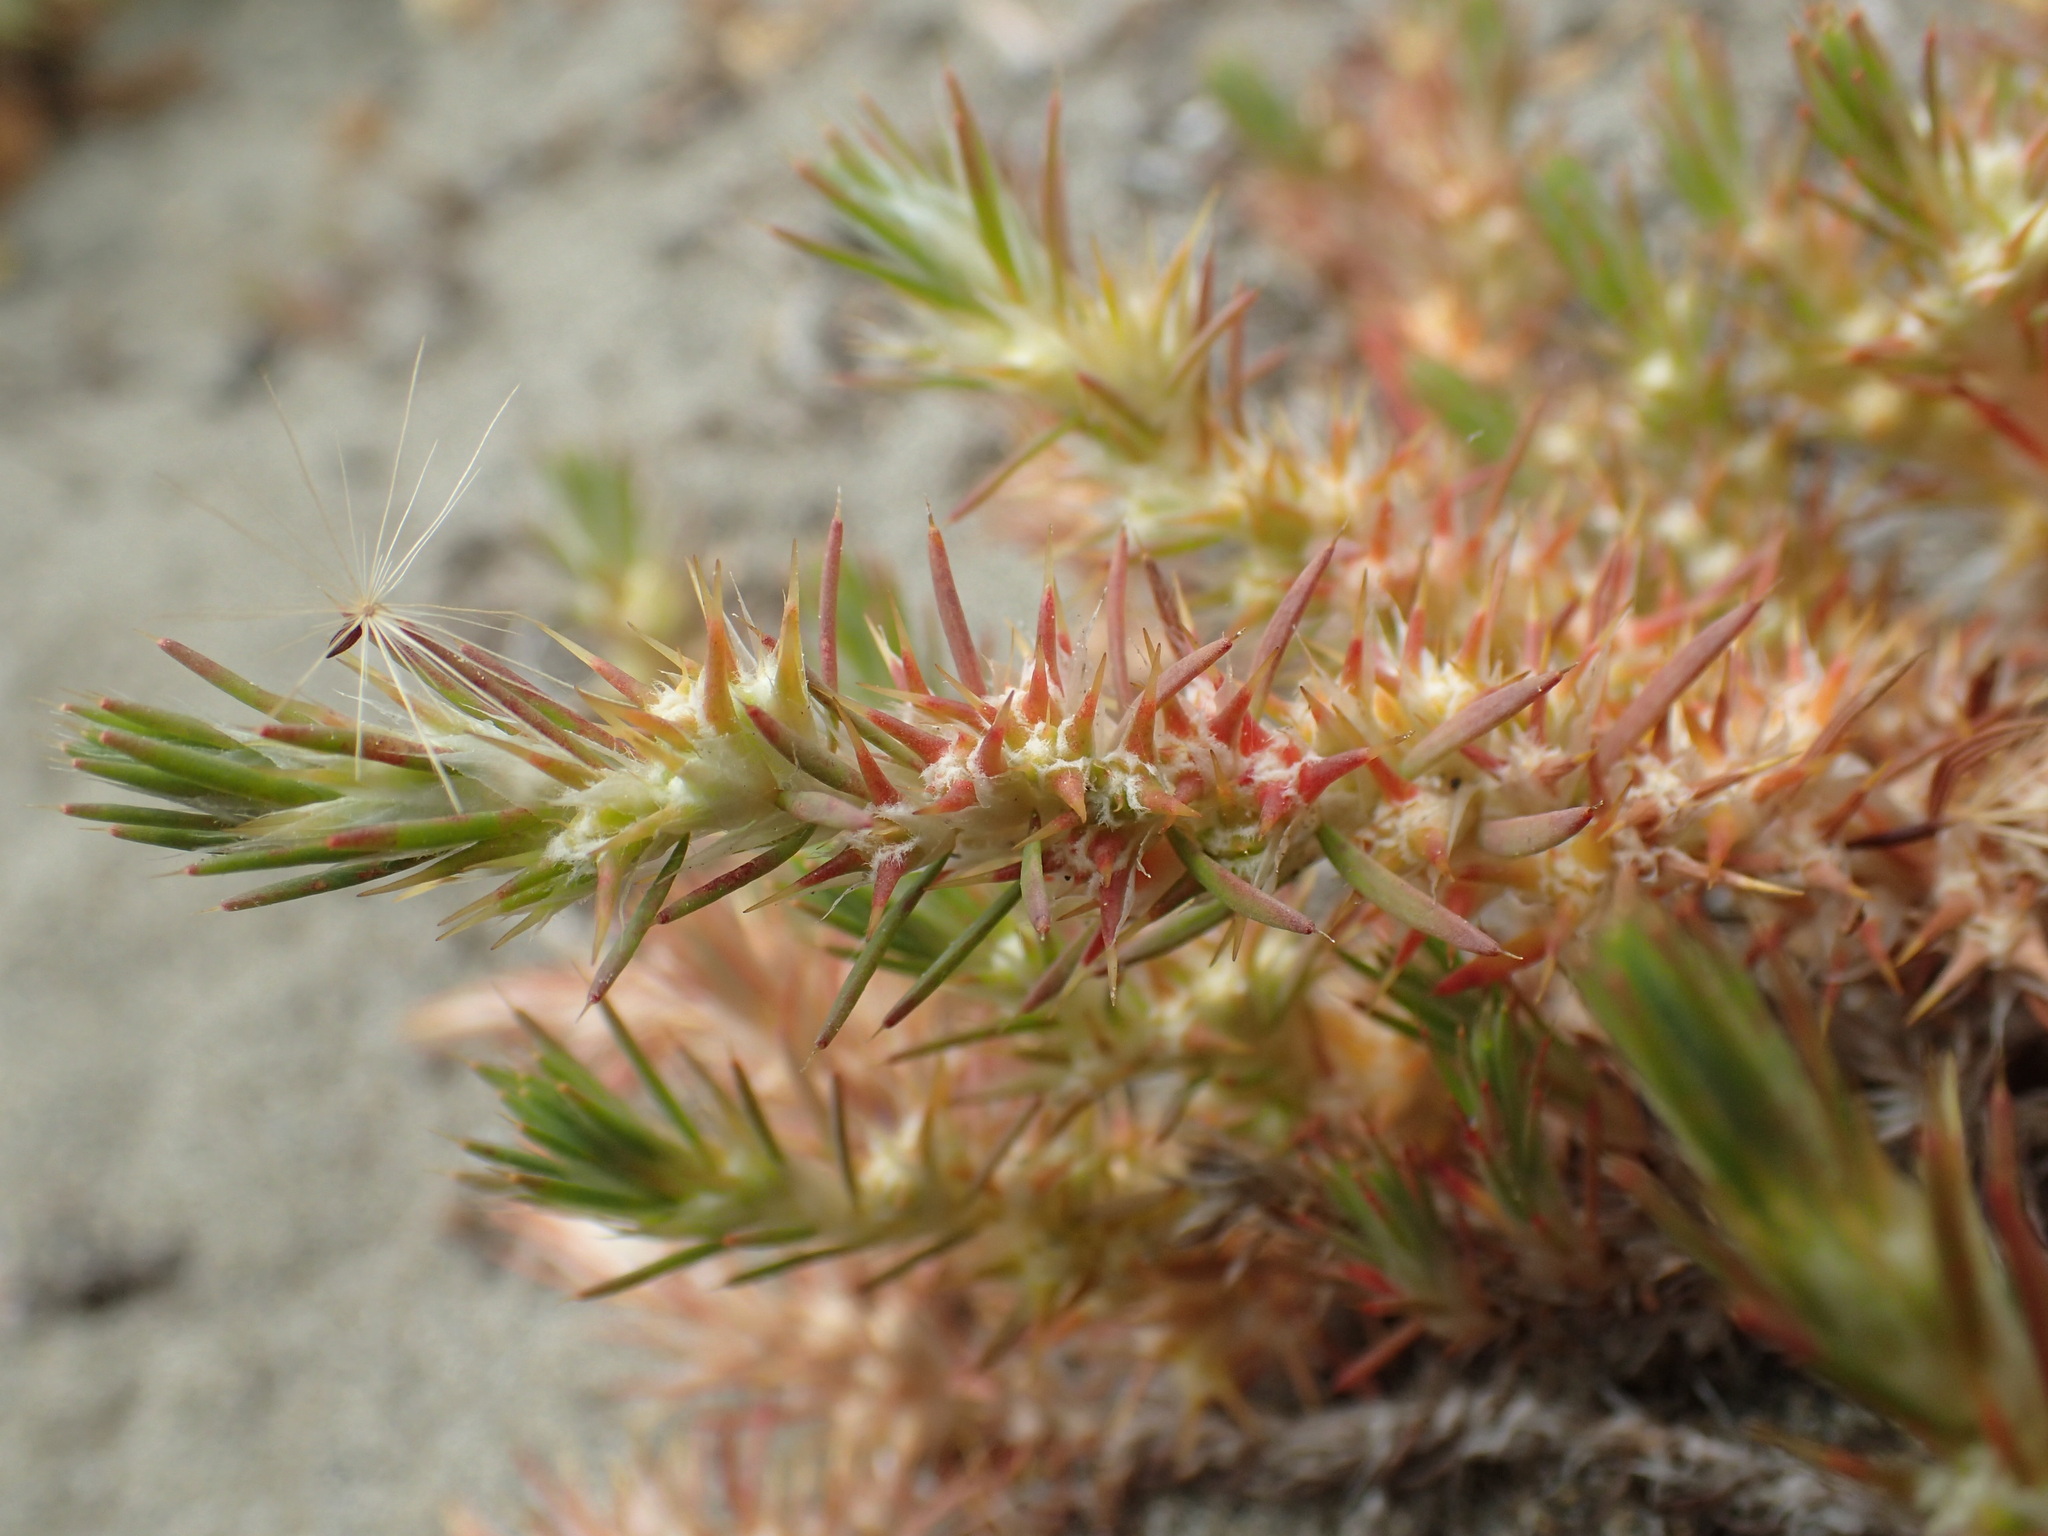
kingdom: Plantae
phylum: Tracheophyta
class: Magnoliopsida
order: Caryophyllales
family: Caryophyllaceae
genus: Cardionema
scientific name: Cardionema ramosissima
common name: Sandcarpet
